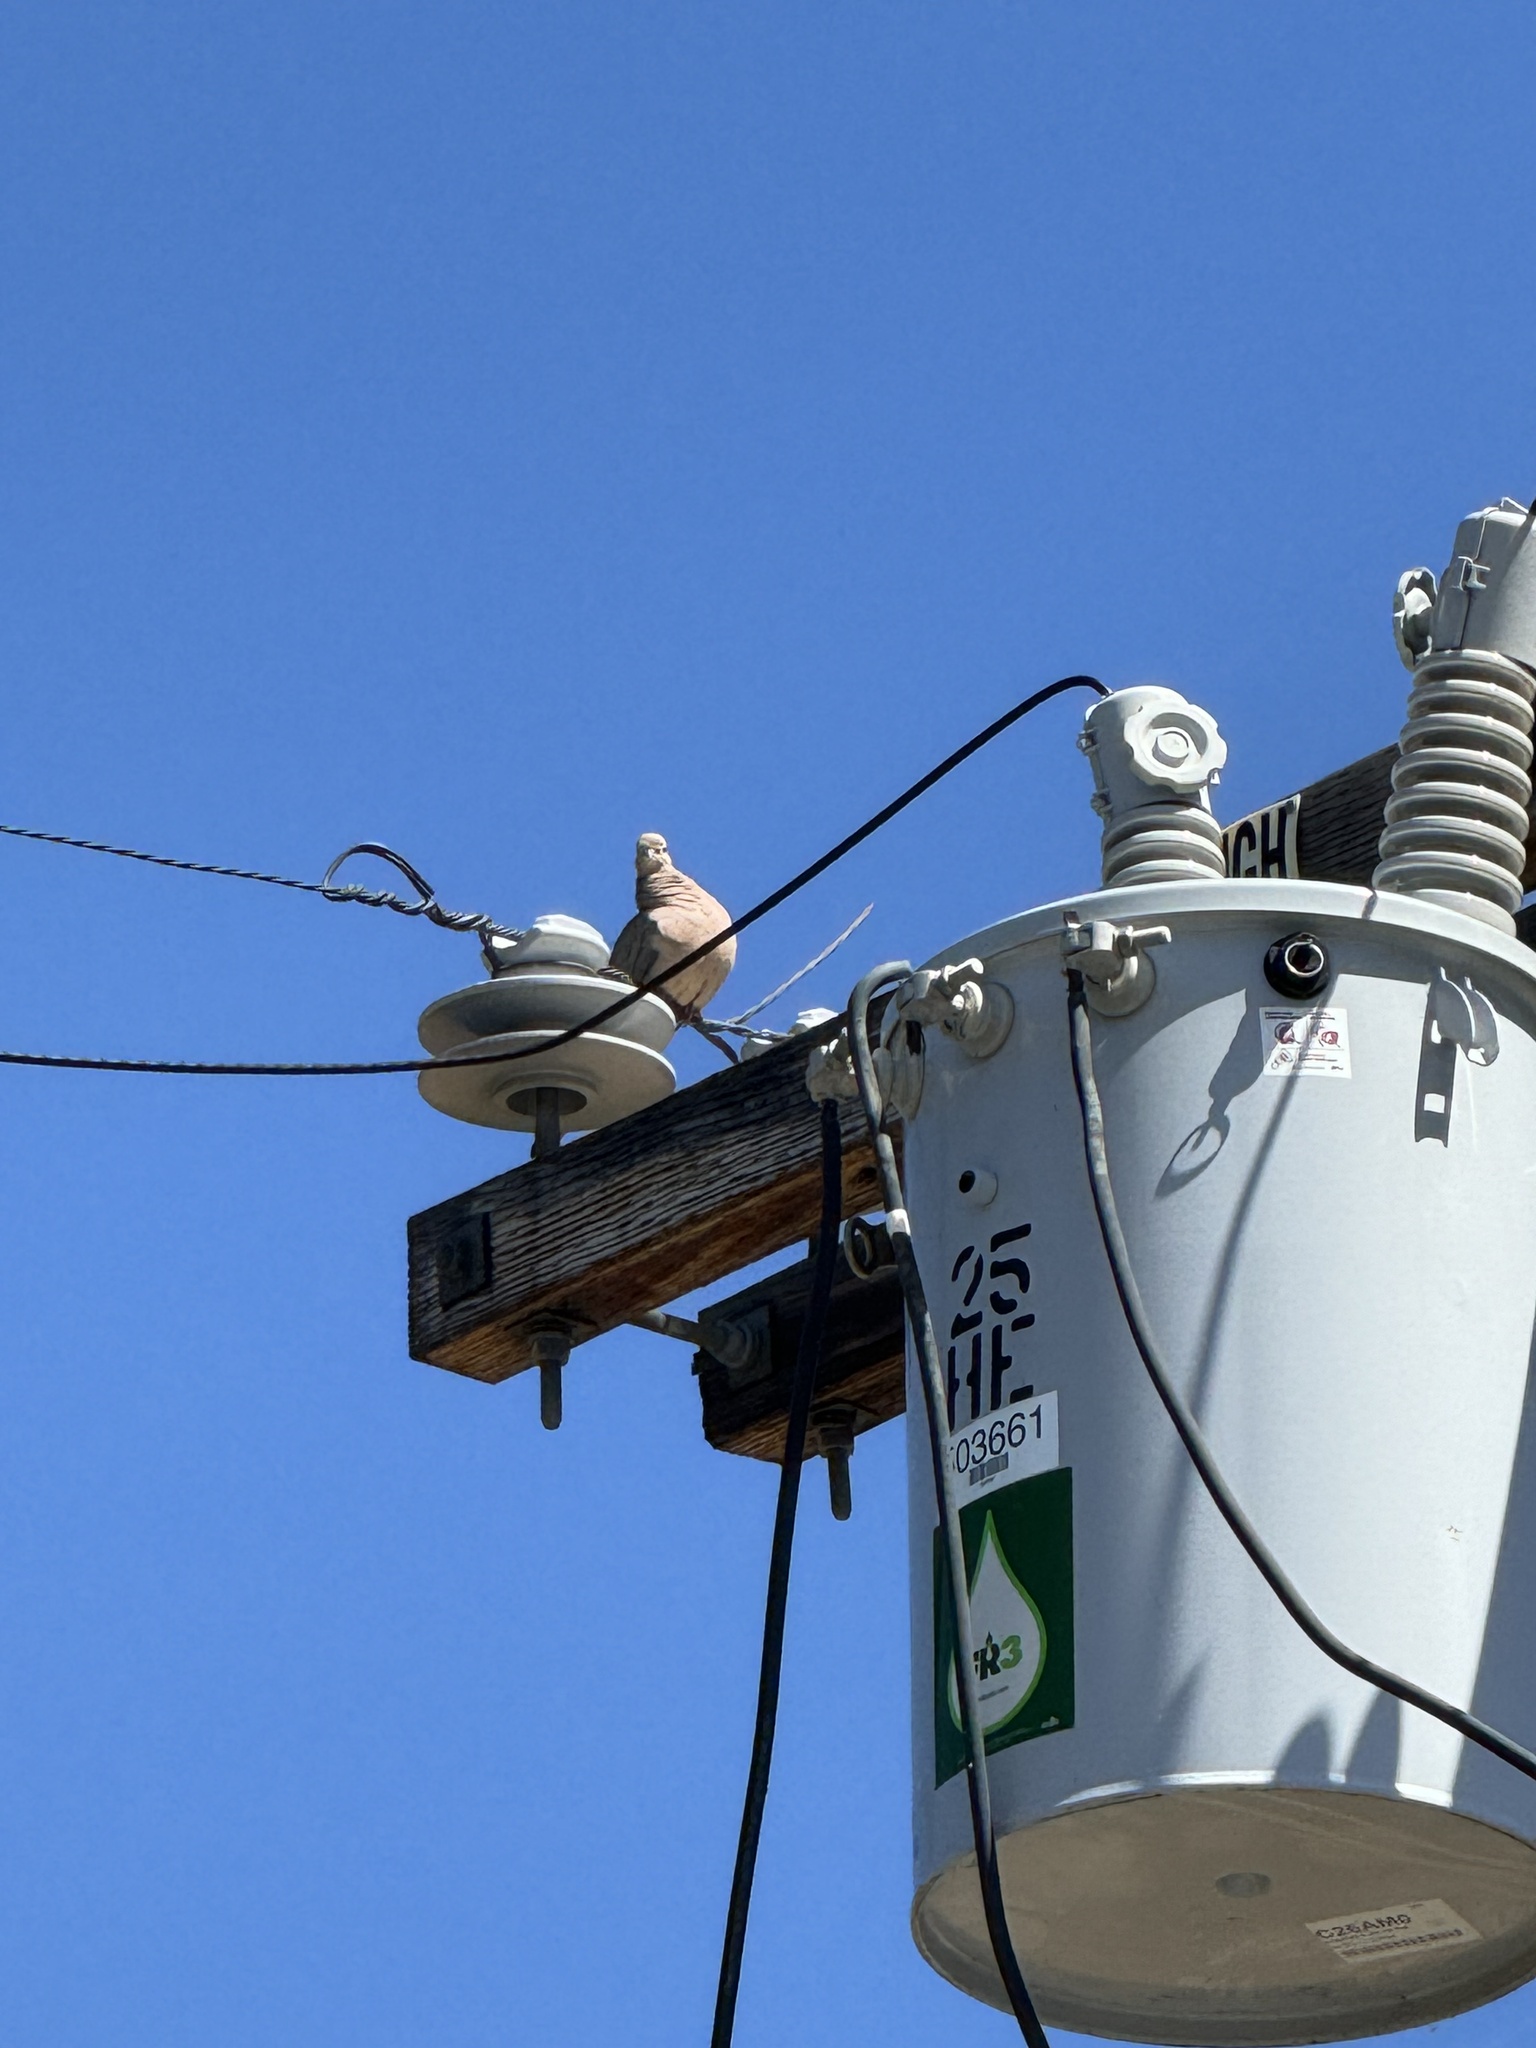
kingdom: Animalia
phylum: Chordata
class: Aves
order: Columbiformes
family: Columbidae
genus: Zenaida
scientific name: Zenaida macroura
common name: Mourning dove
